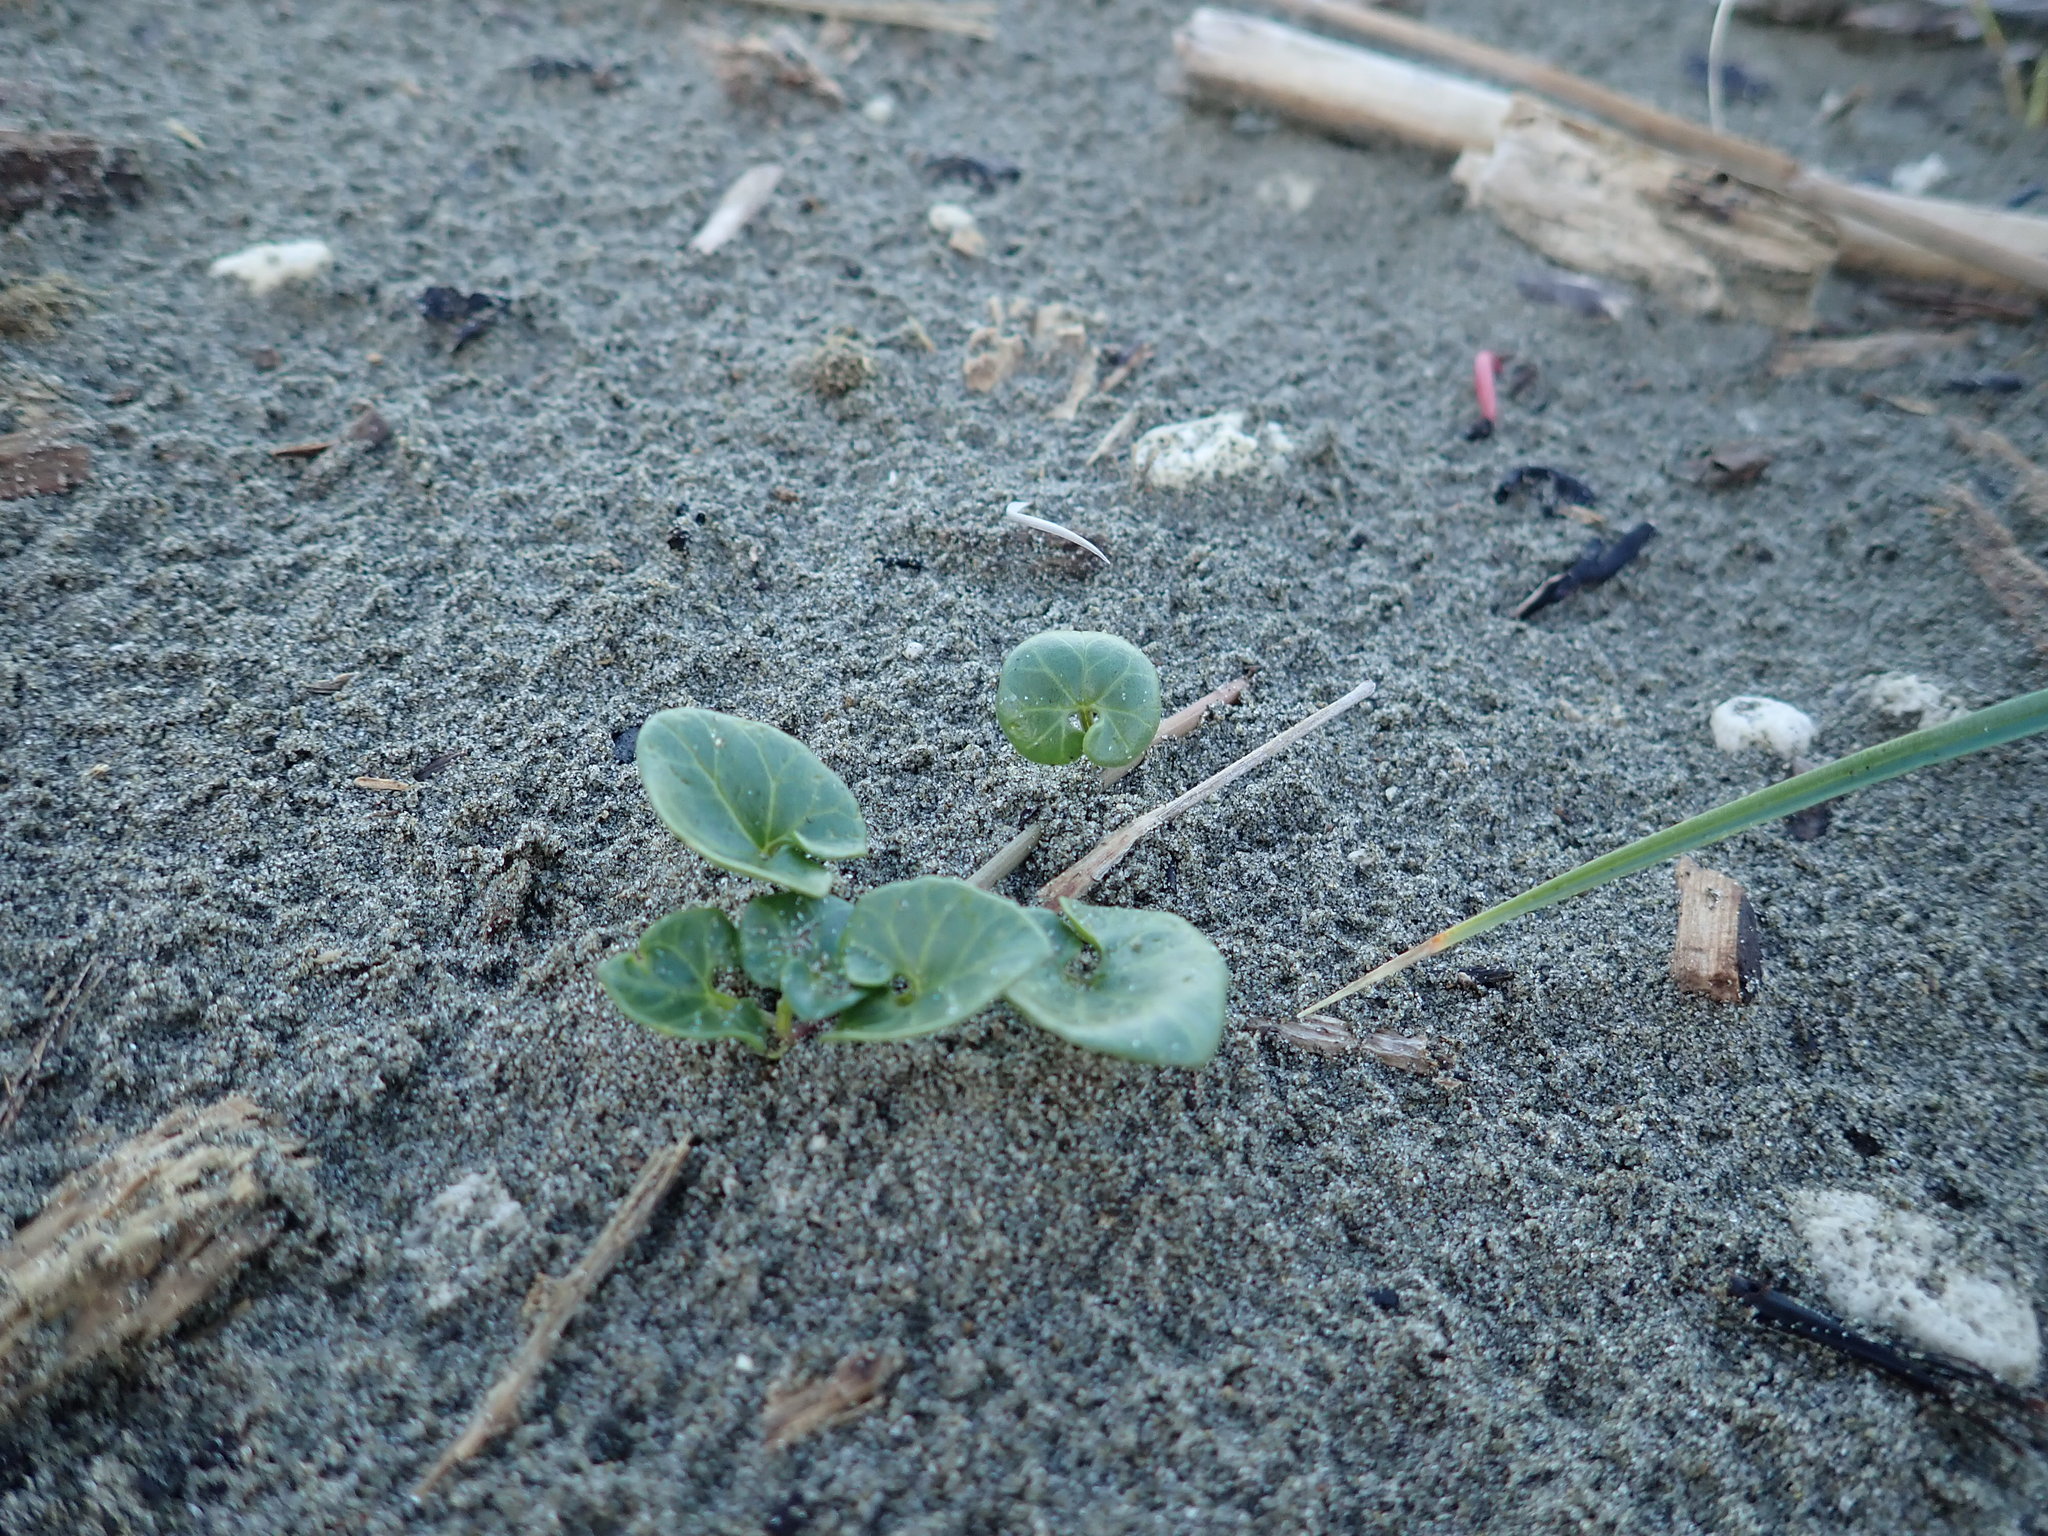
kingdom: Plantae
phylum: Tracheophyta
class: Magnoliopsida
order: Solanales
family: Convolvulaceae
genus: Calystegia
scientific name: Calystegia soldanella
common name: Sea bindweed
